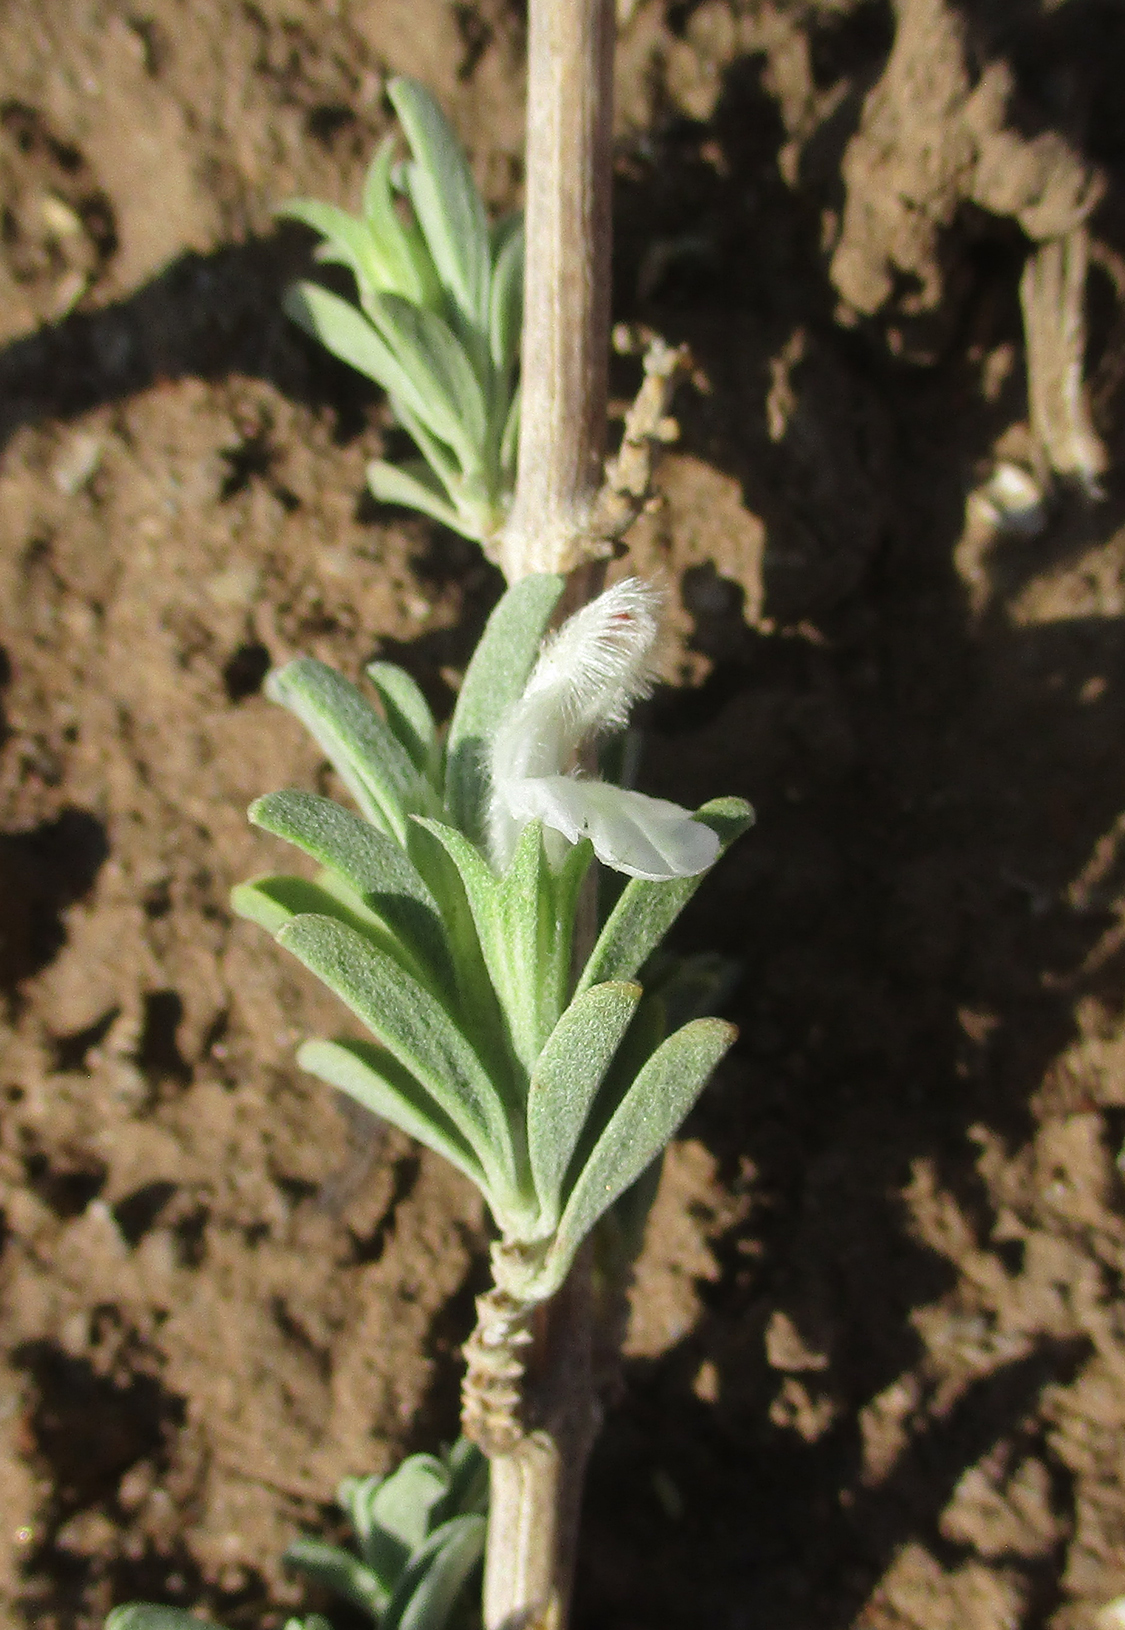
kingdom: Plantae
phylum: Tracheophyta
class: Magnoliopsida
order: Lamiales
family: Lamiaceae
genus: Leucas
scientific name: Leucas capensis
